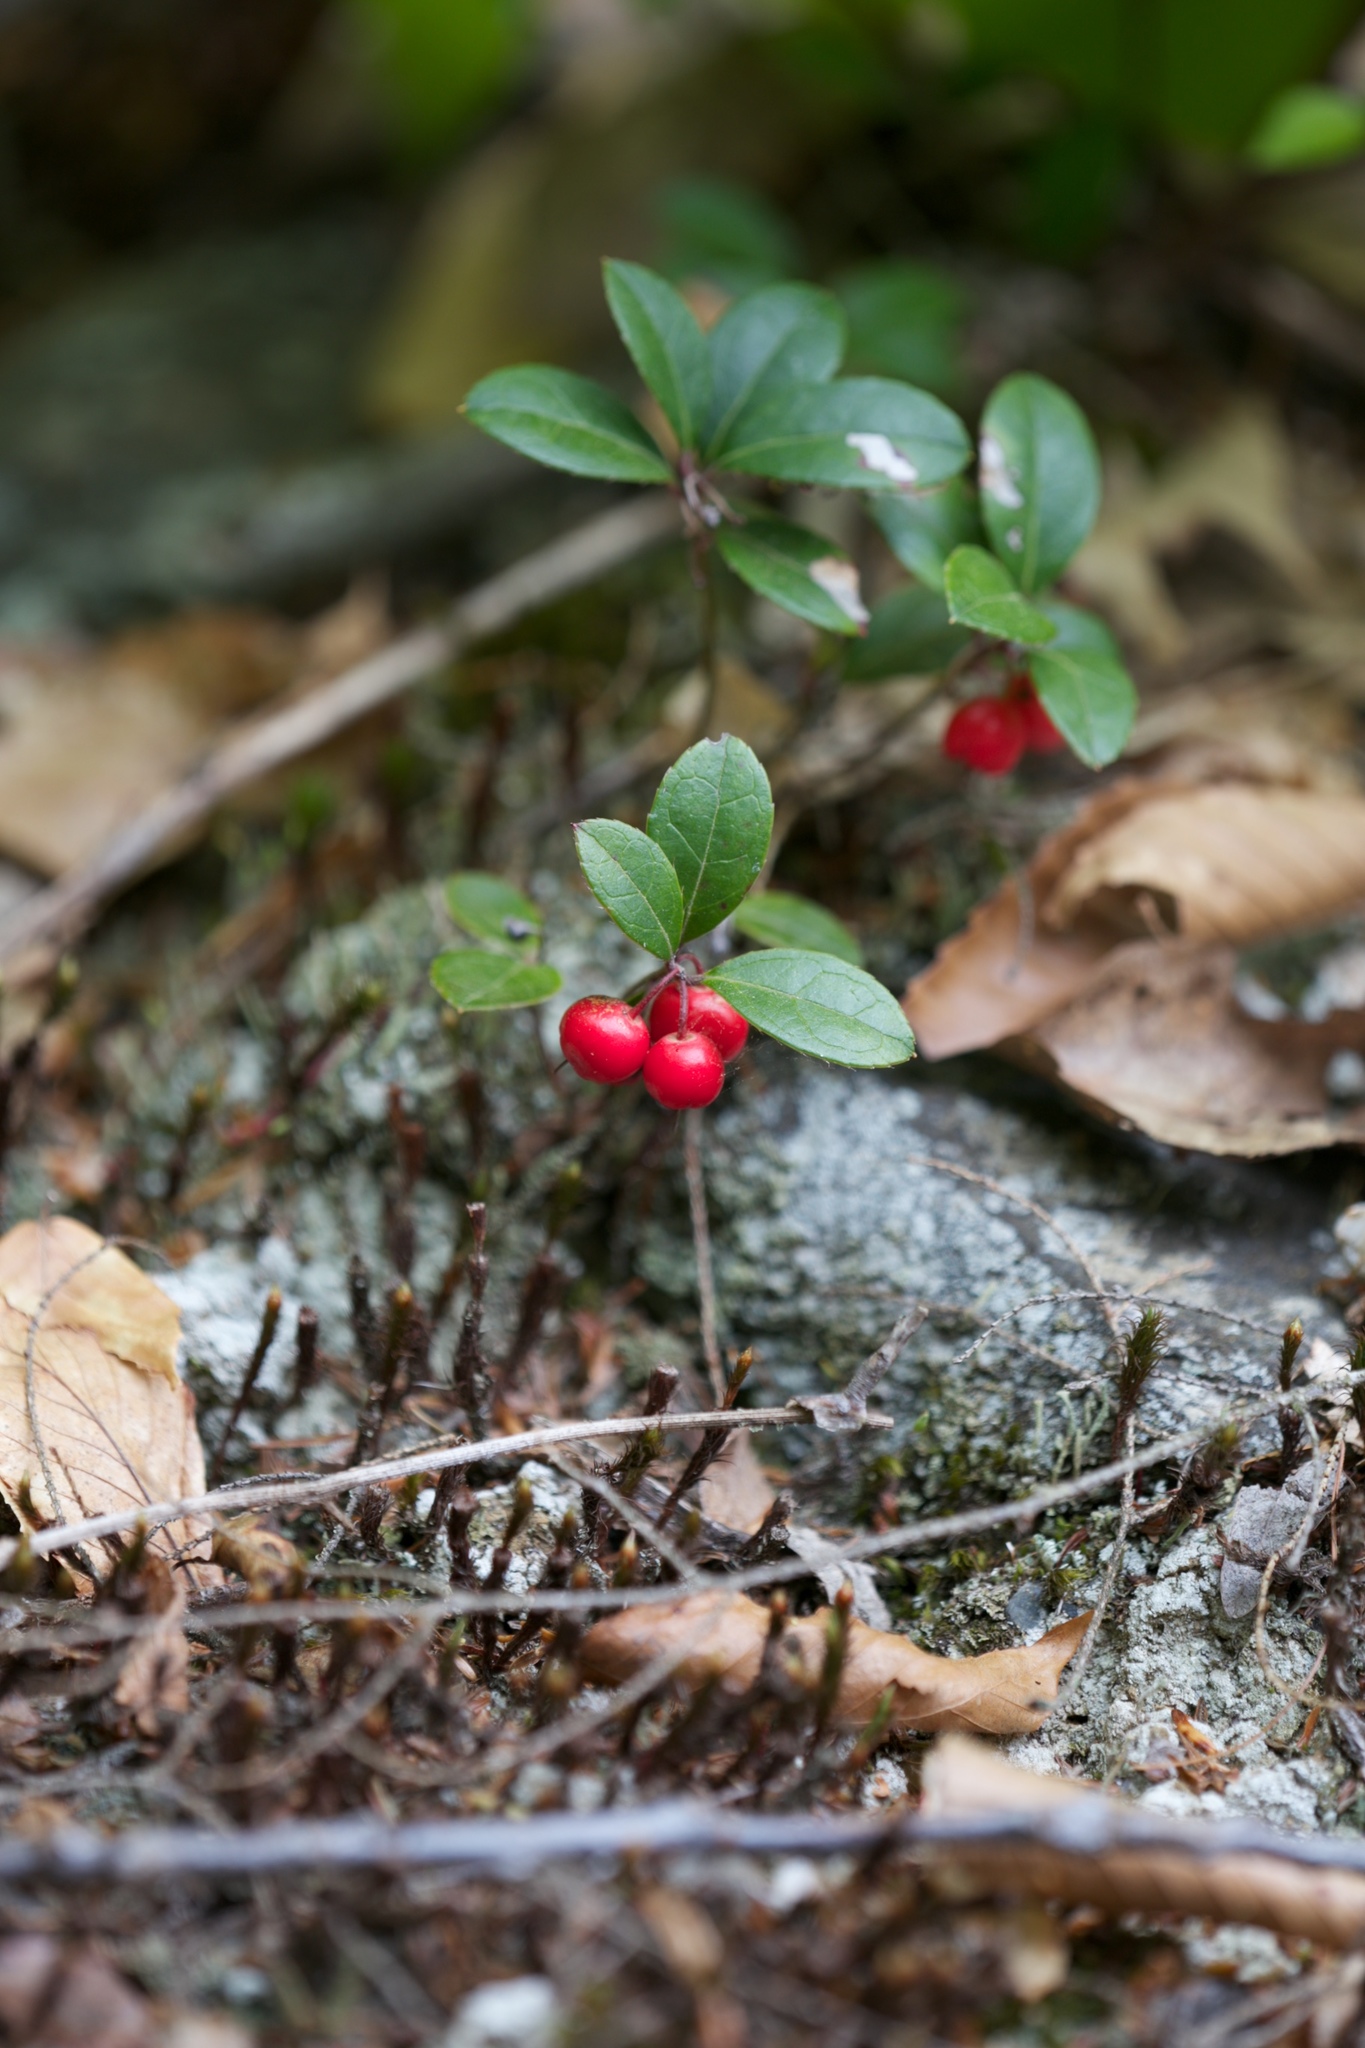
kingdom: Plantae
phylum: Tracheophyta
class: Magnoliopsida
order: Ericales
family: Ericaceae
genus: Gaultheria
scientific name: Gaultheria procumbens
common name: Checkerberry
